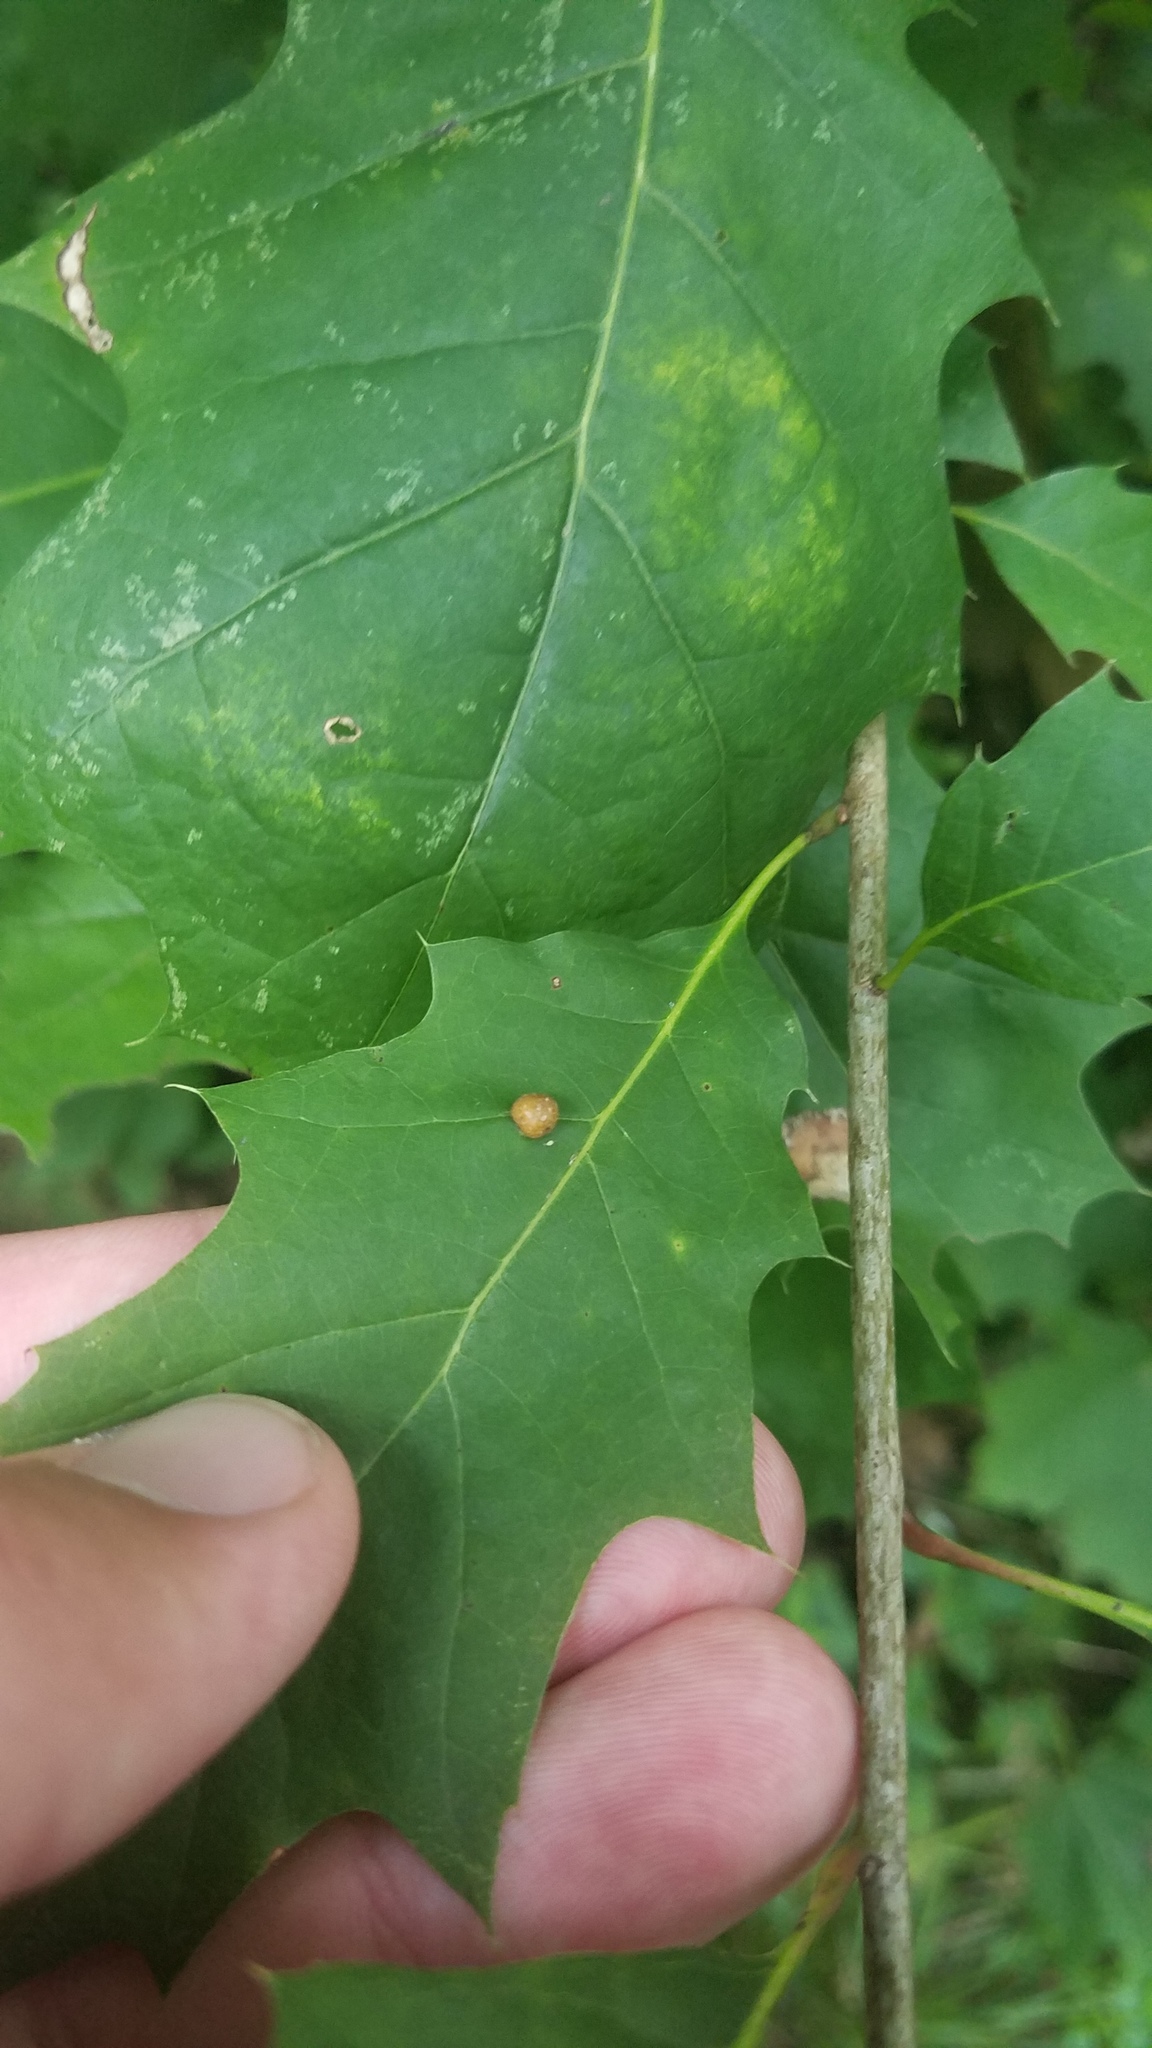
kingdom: Animalia
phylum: Arthropoda
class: Insecta
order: Diptera
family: Cecidomyiidae
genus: Polystepha
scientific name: Polystepha pilulae
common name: Oak leaf gall midge
